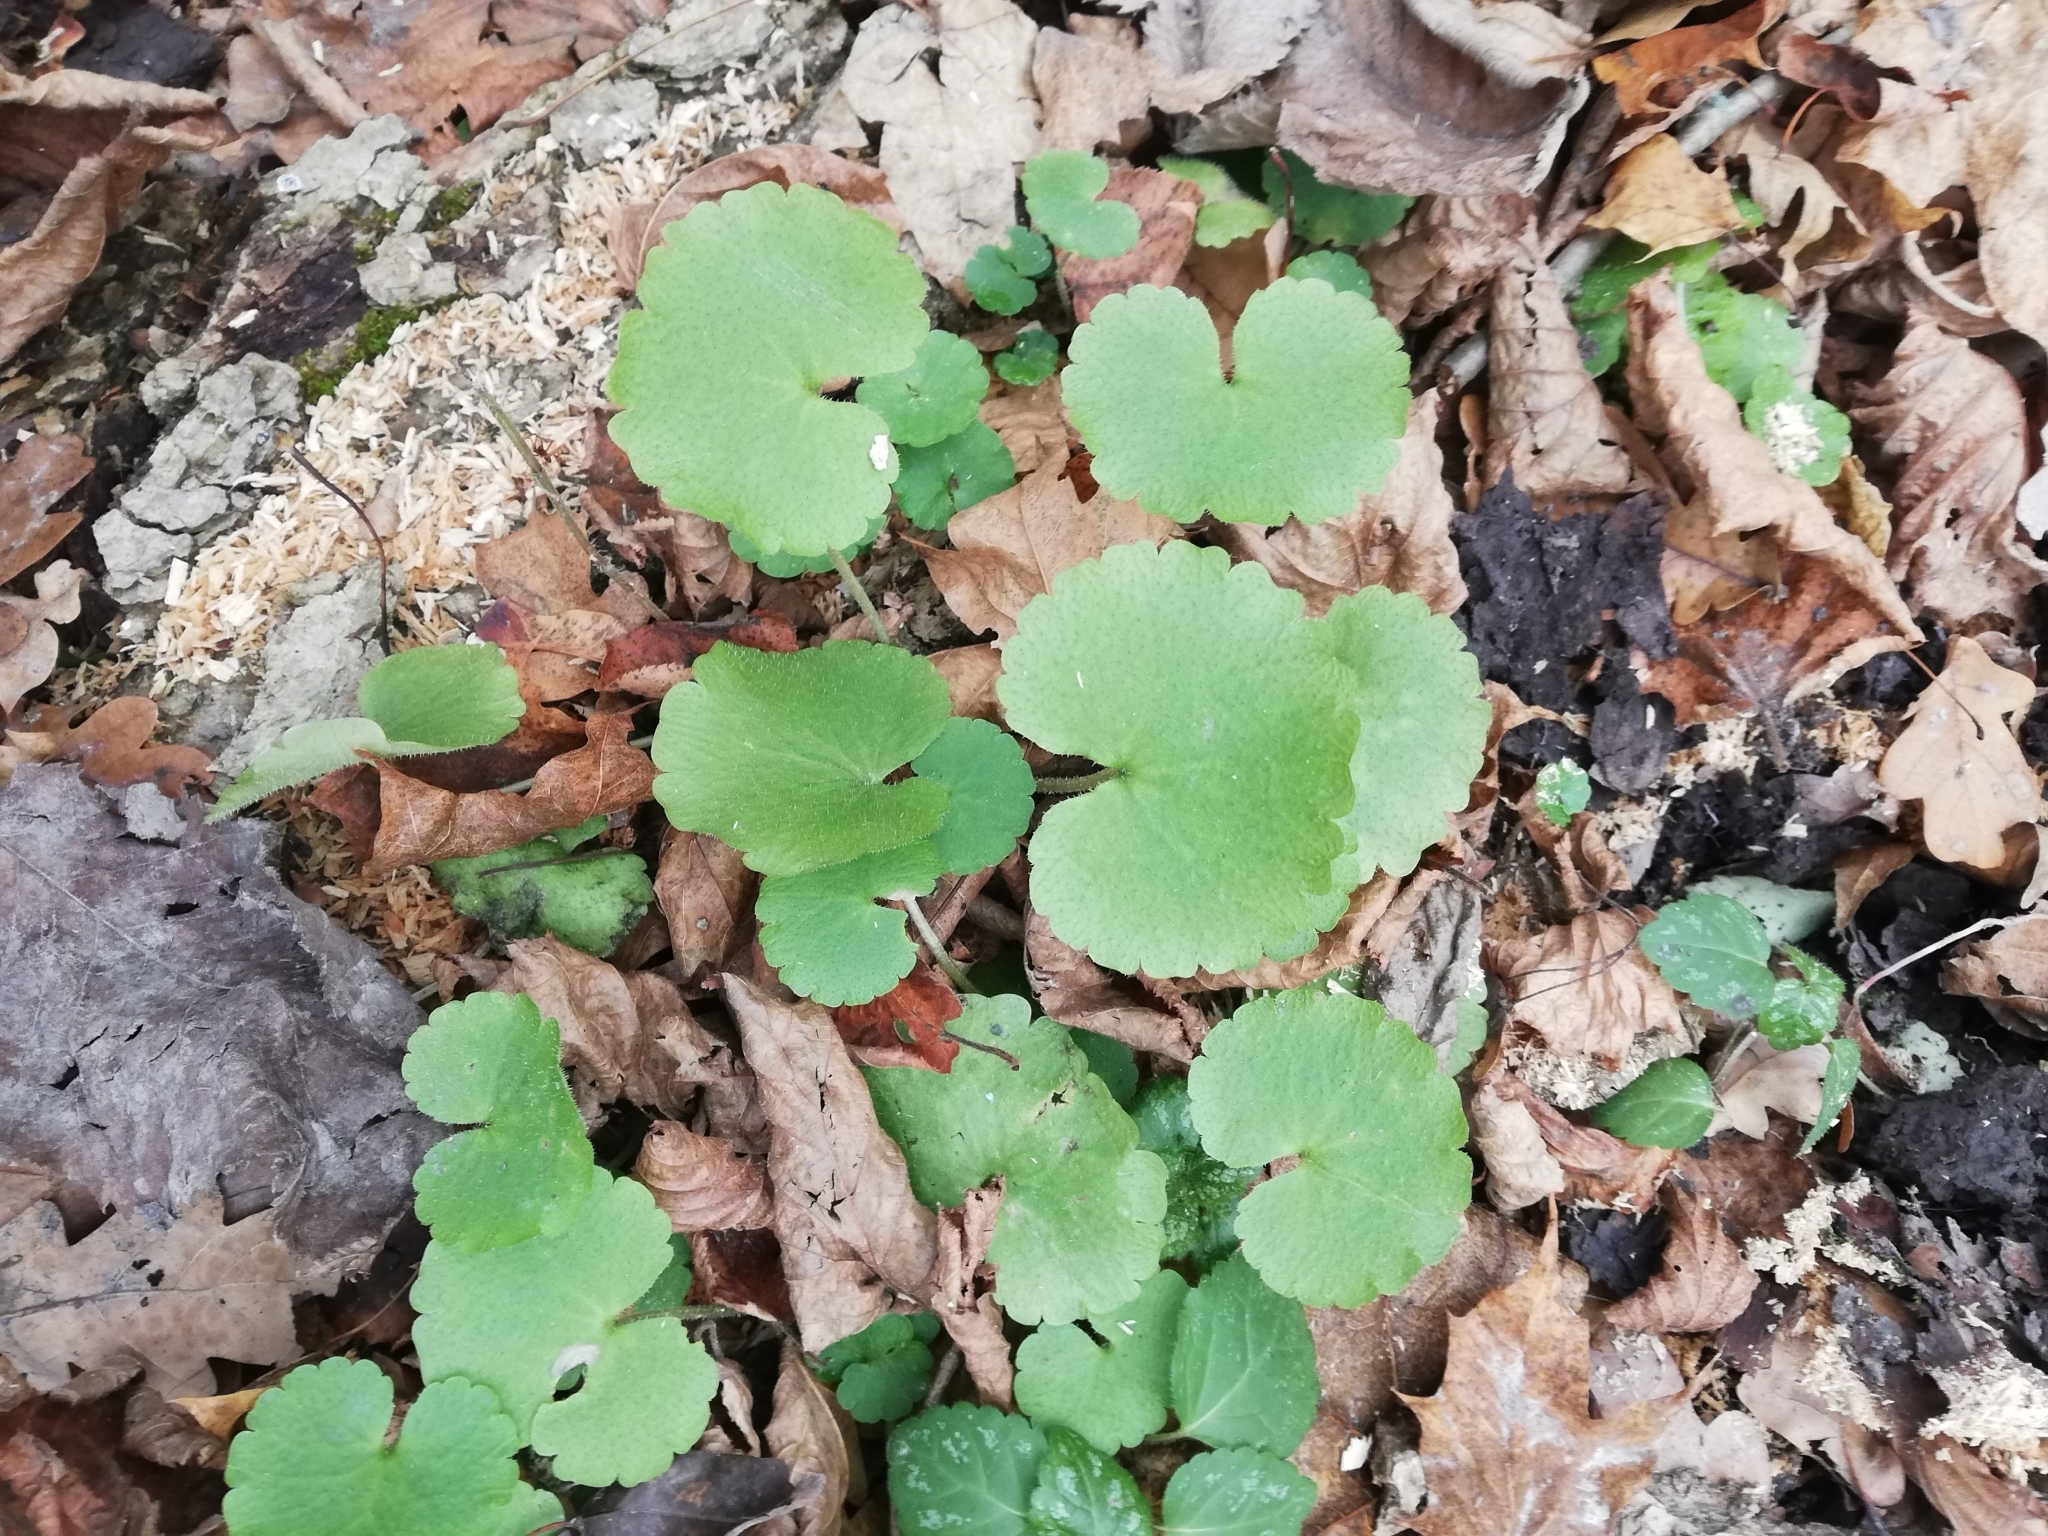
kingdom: Plantae
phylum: Tracheophyta
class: Magnoliopsida
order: Saxifragales
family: Saxifragaceae
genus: Chrysosplenium
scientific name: Chrysosplenium alternifolium
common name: Alternate-leaved golden-saxifrage
